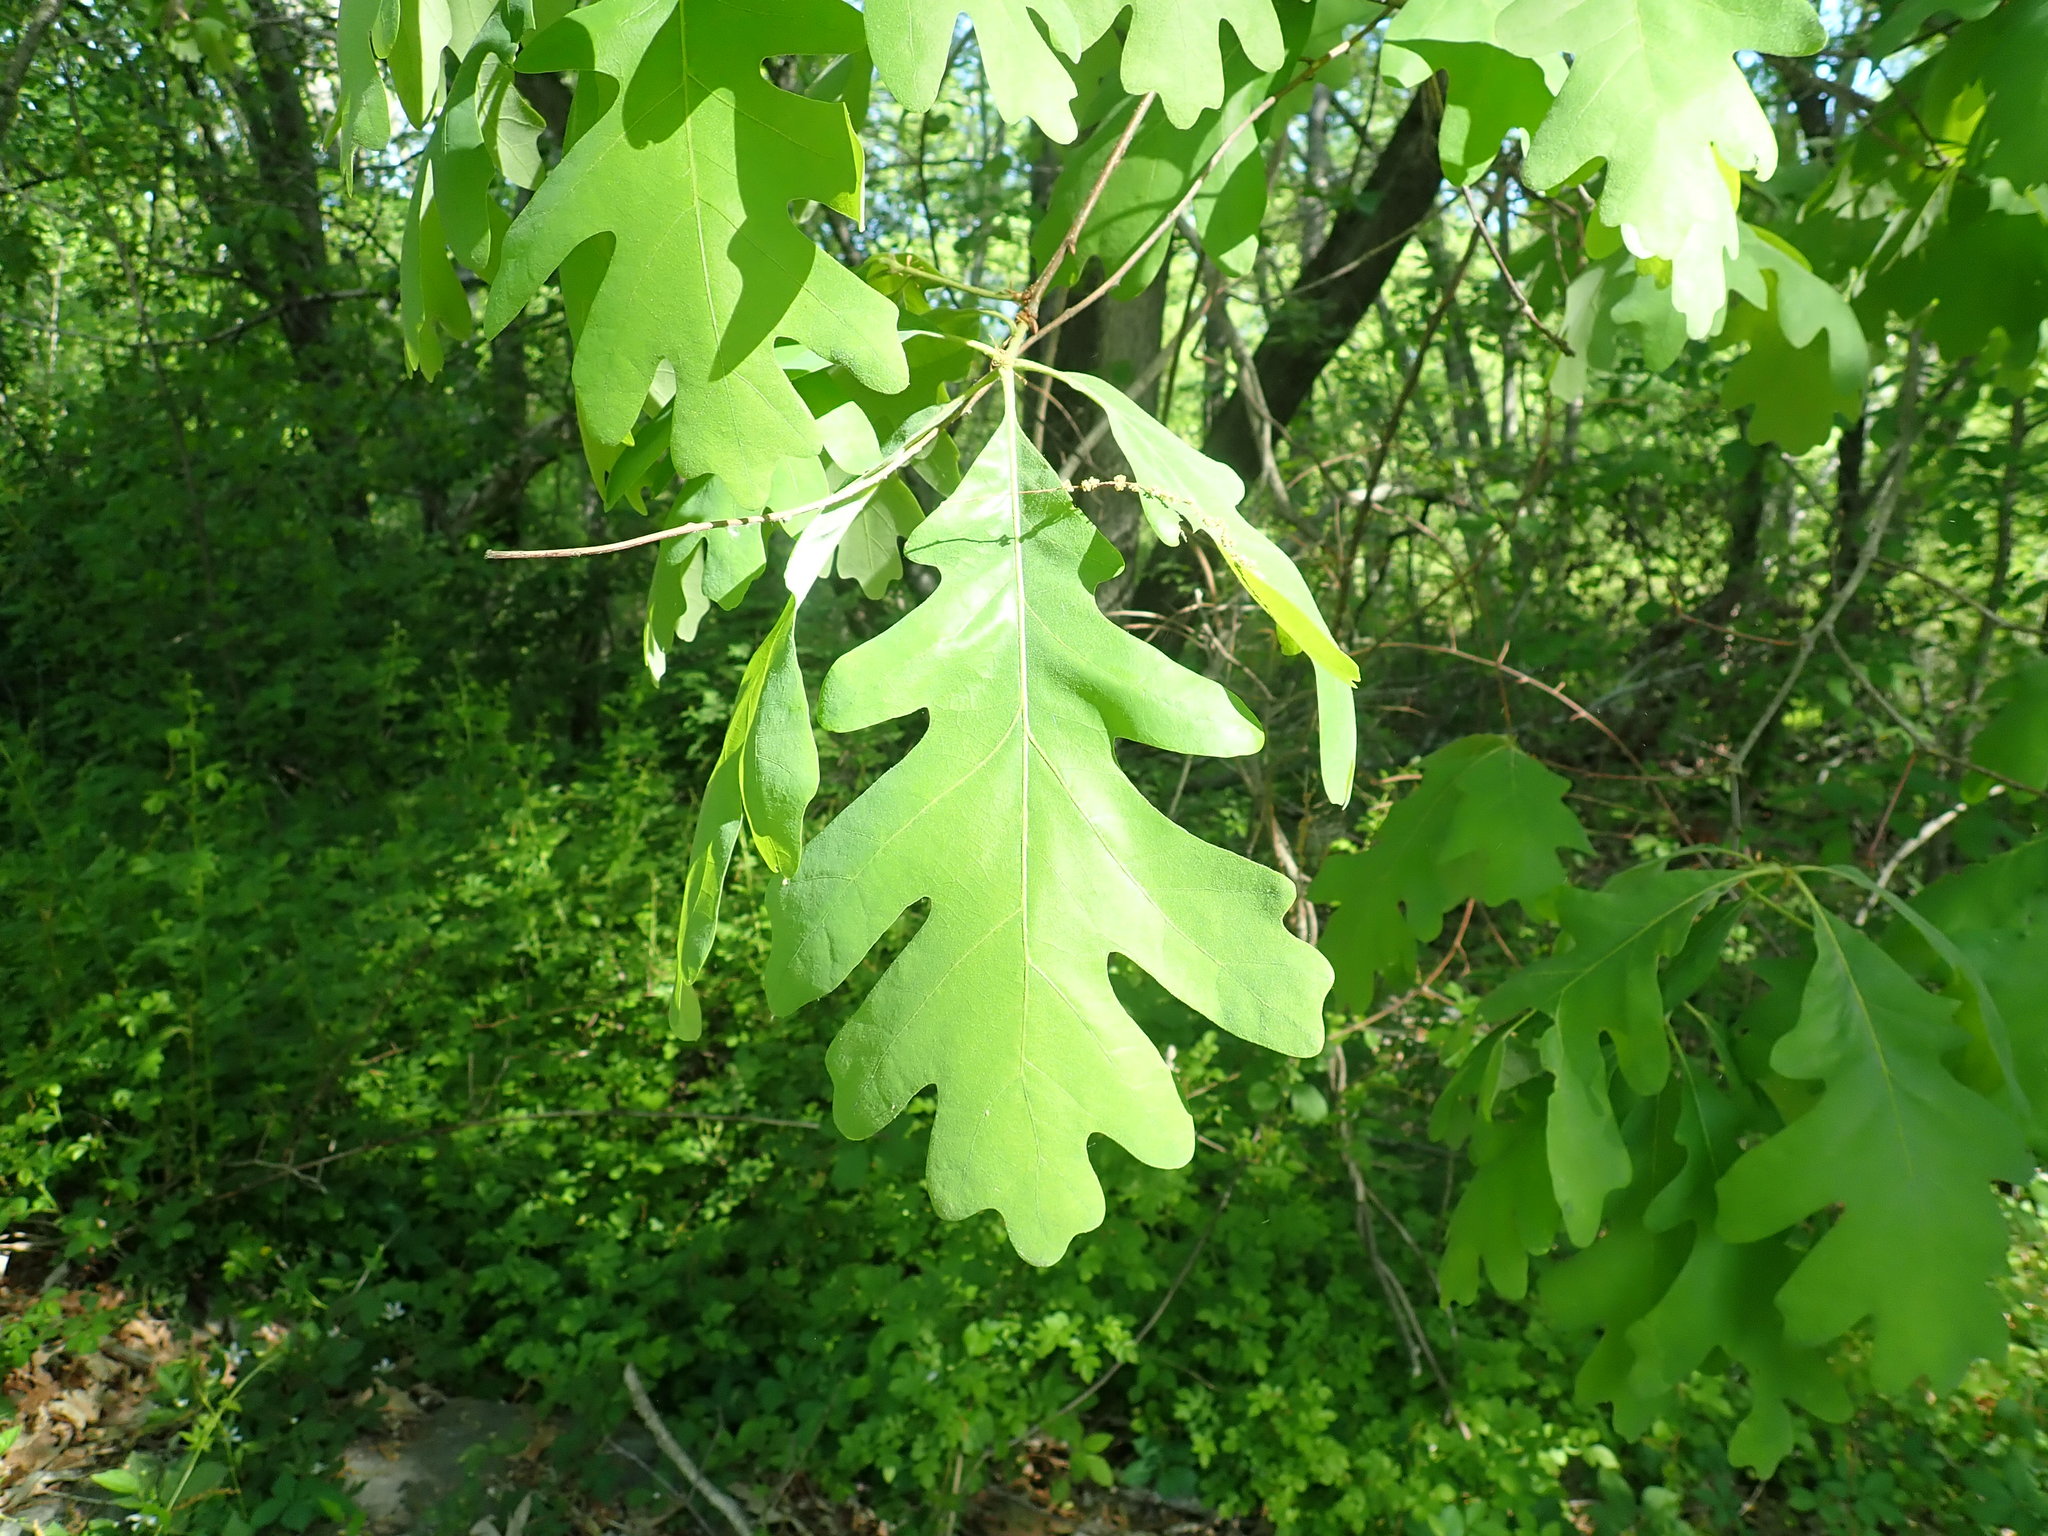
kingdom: Plantae
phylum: Tracheophyta
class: Magnoliopsida
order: Fagales
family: Fagaceae
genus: Quercus
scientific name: Quercus alba
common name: White oak
